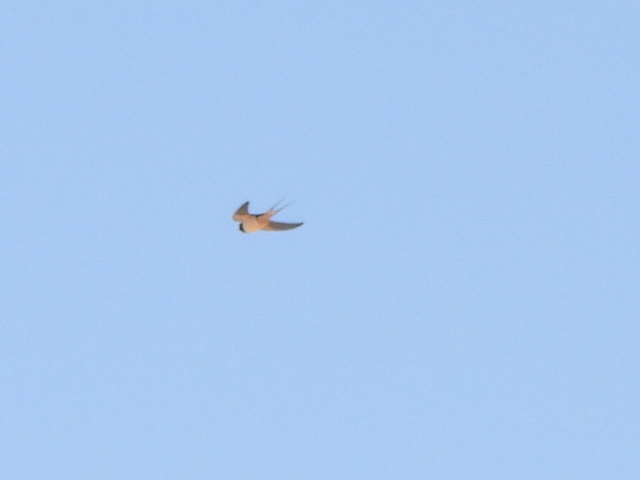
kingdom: Animalia
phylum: Chordata
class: Aves
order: Passeriformes
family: Hirundinidae
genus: Hirundo
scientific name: Hirundo rustica
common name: Barn swallow
